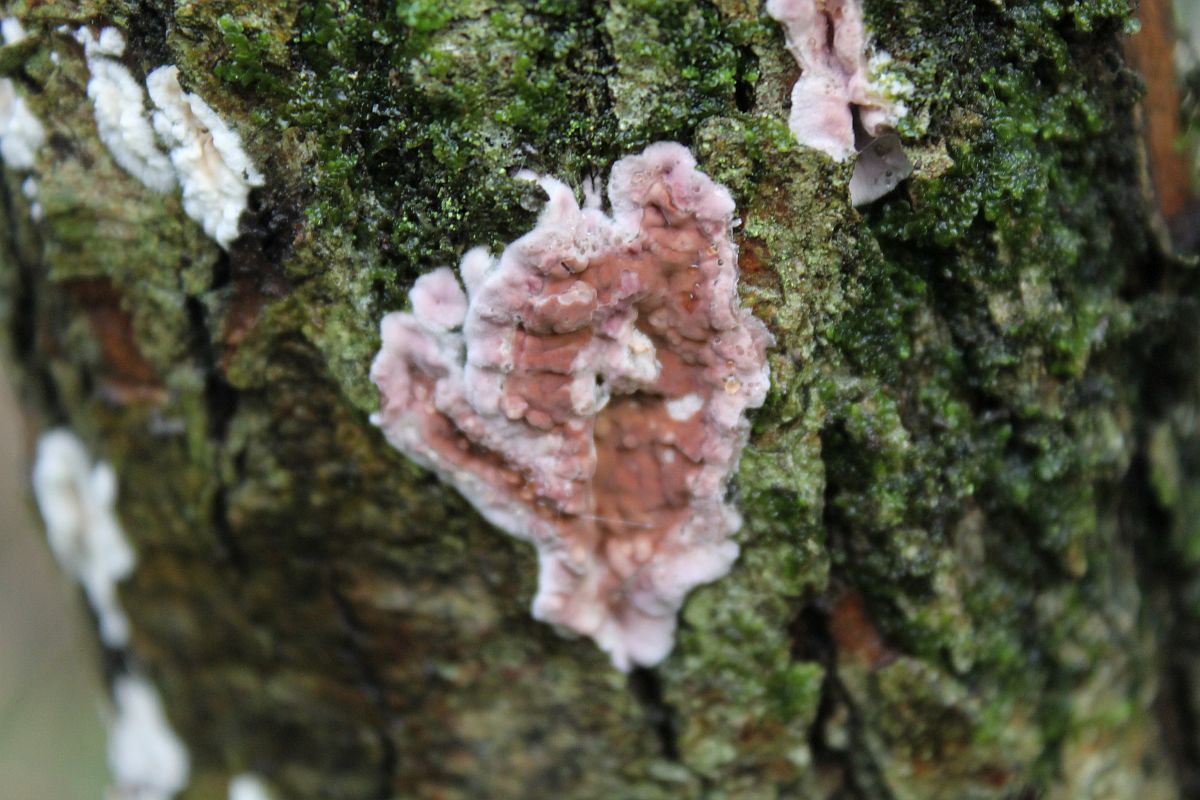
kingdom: Fungi
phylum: Basidiomycota
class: Agaricomycetes
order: Agaricales
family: Cyphellaceae
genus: Chondrostereum
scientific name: Chondrostereum purpureum
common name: Silver leaf disease
